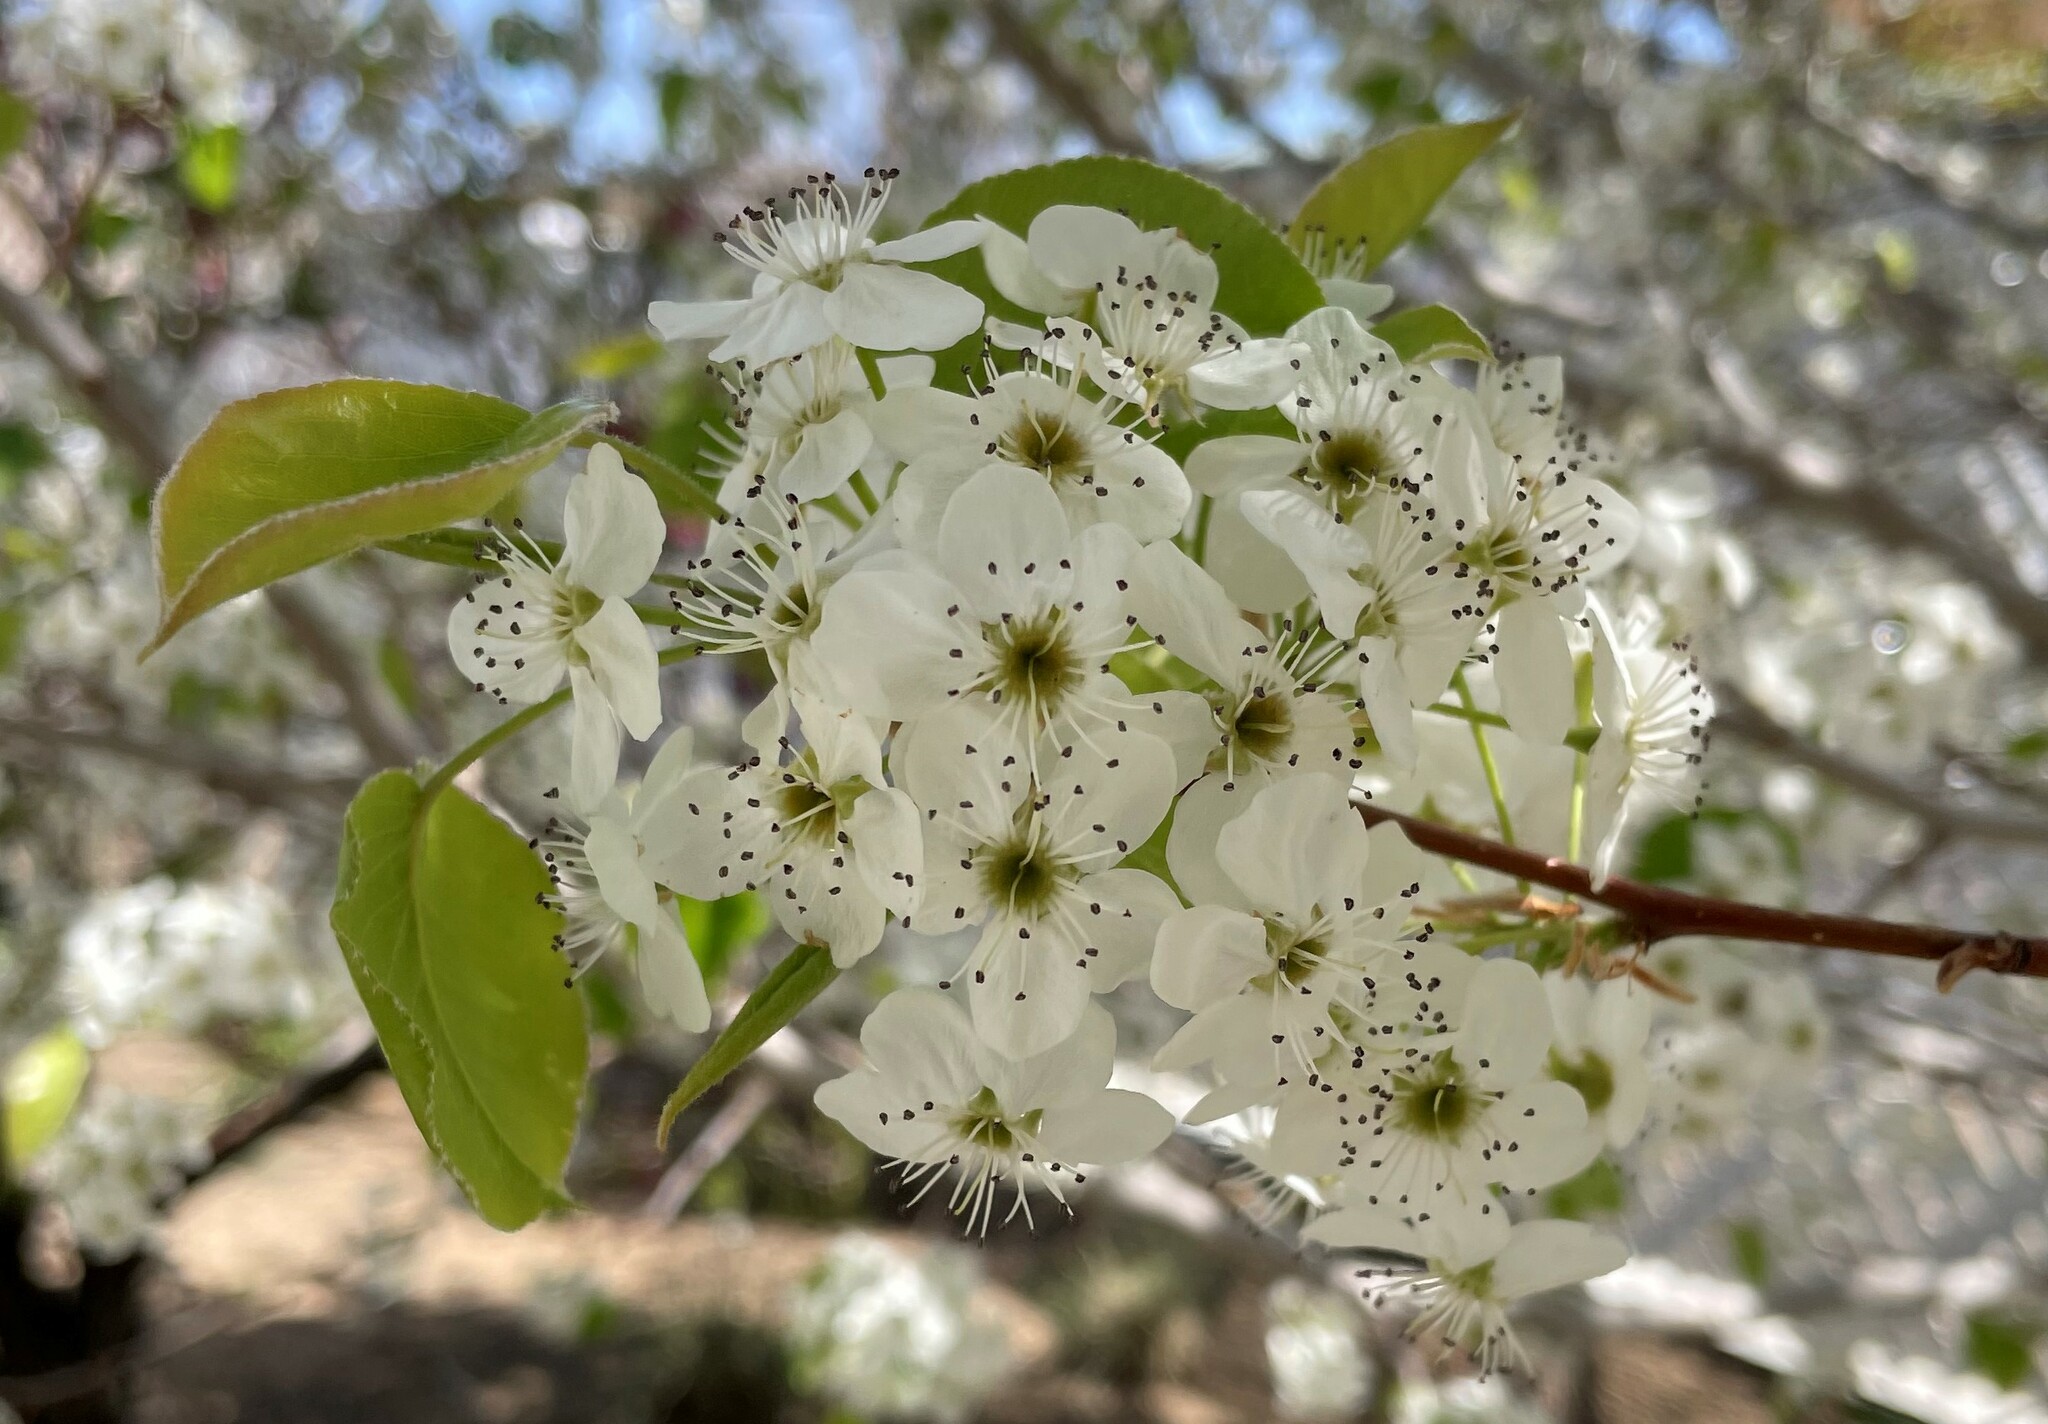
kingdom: Plantae
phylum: Tracheophyta
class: Magnoliopsida
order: Rosales
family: Rosaceae
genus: Pyrus
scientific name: Pyrus calleryana
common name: Callery pear
